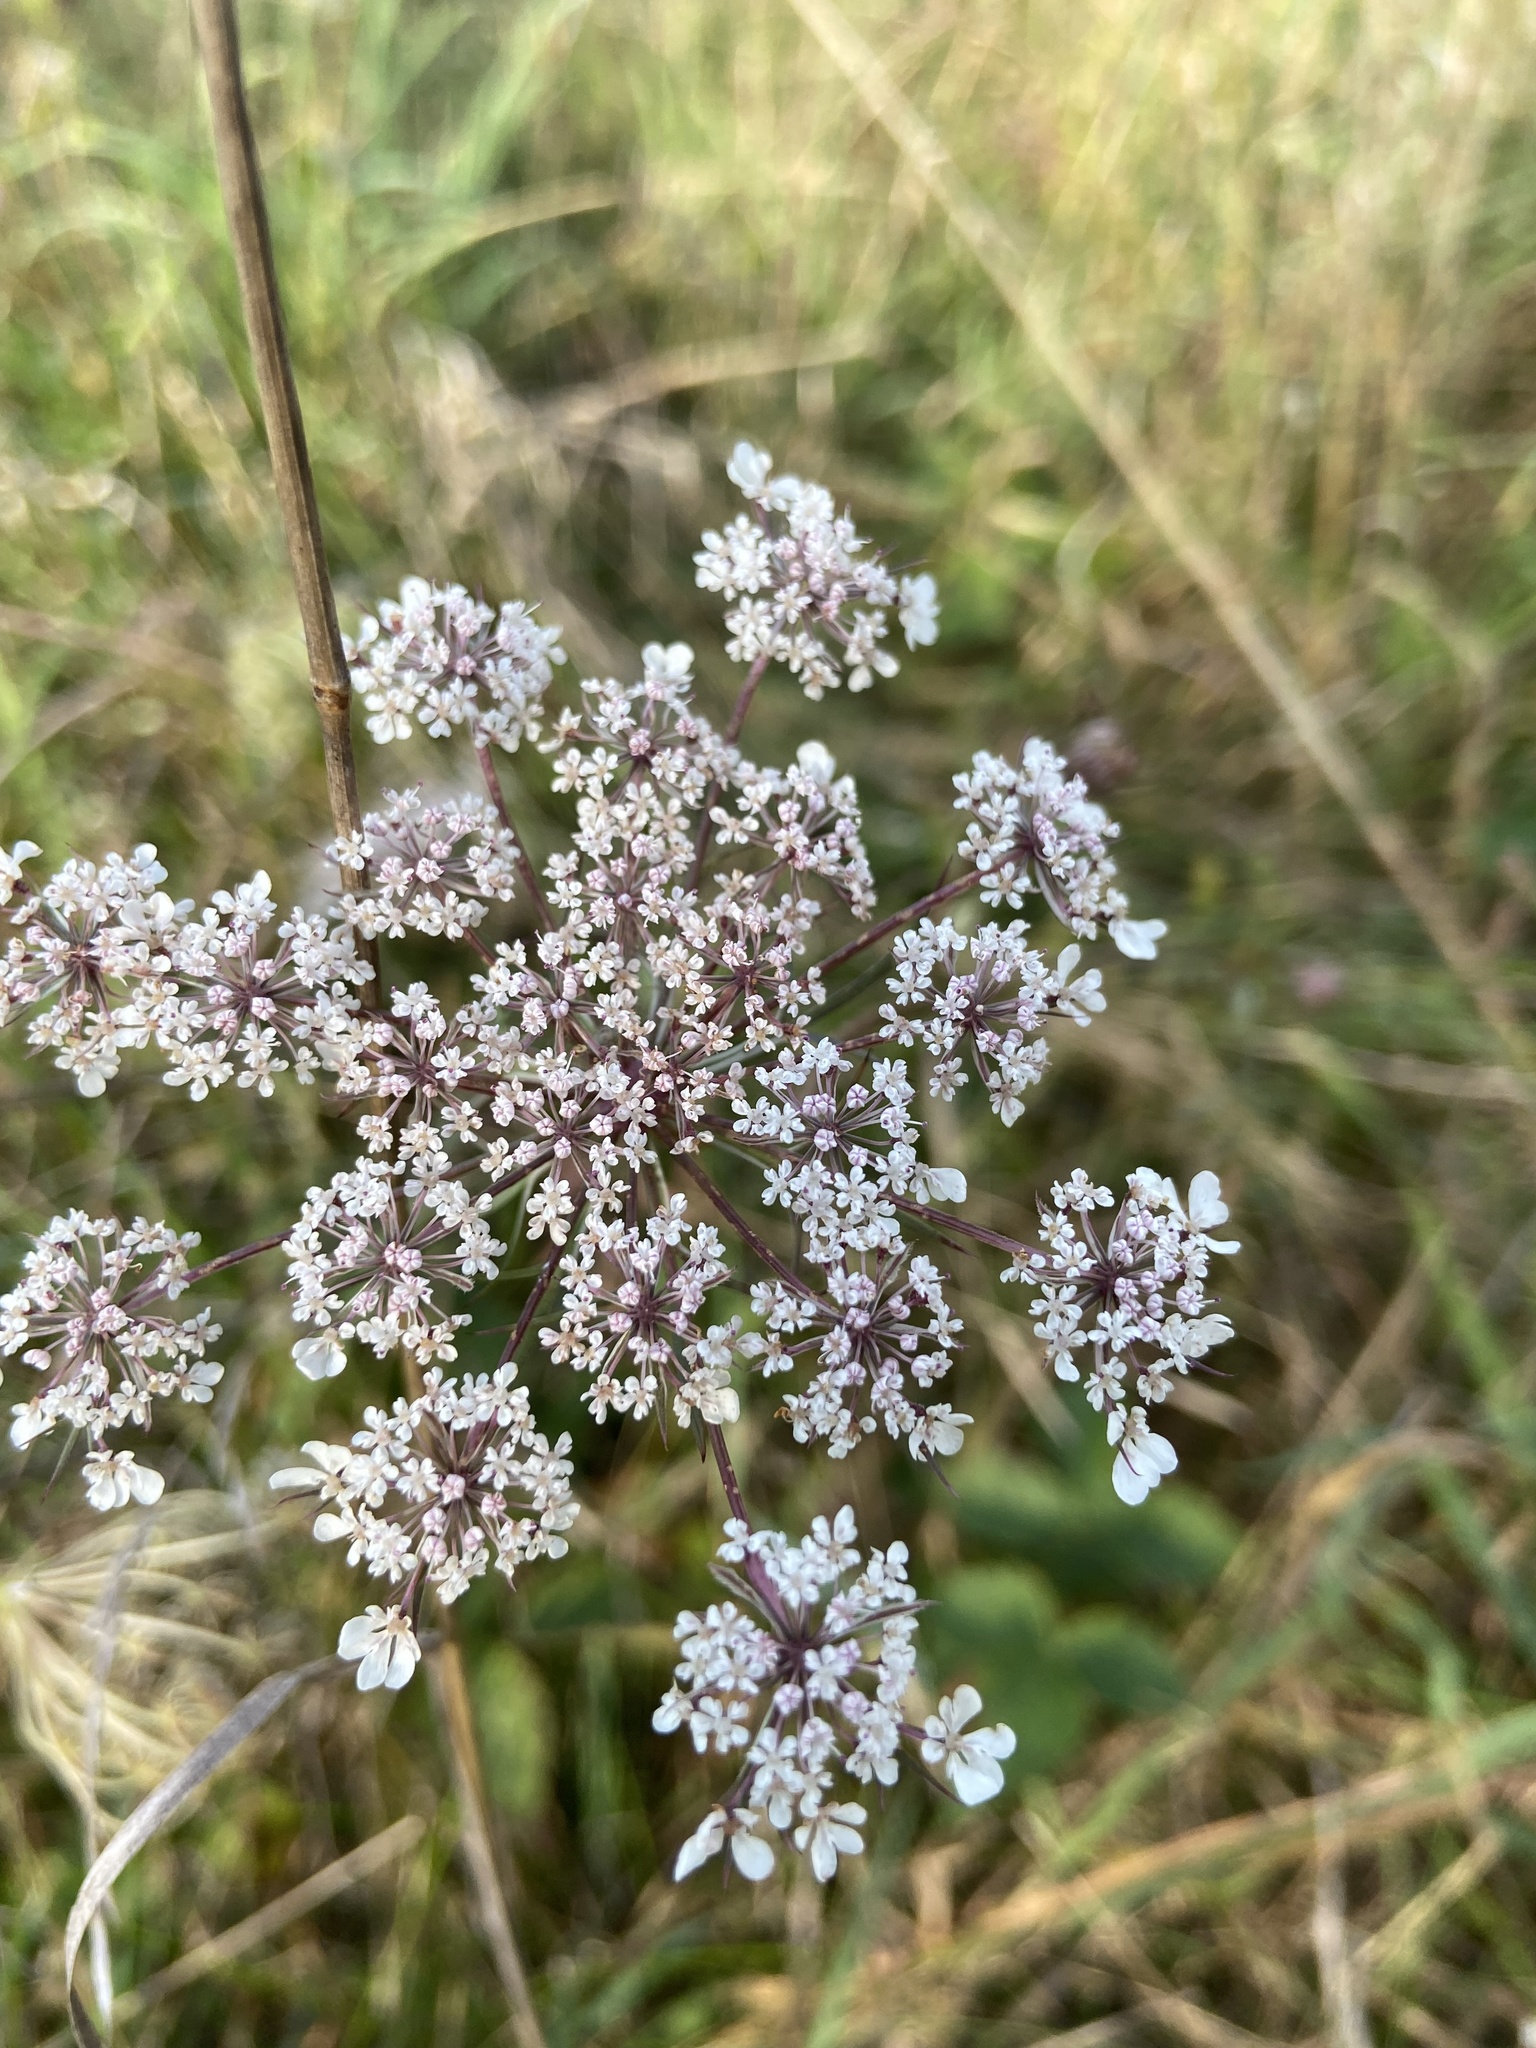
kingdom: Plantae
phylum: Tracheophyta
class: Magnoliopsida
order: Apiales
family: Apiaceae
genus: Daucus
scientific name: Daucus carota
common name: Wild carrot
